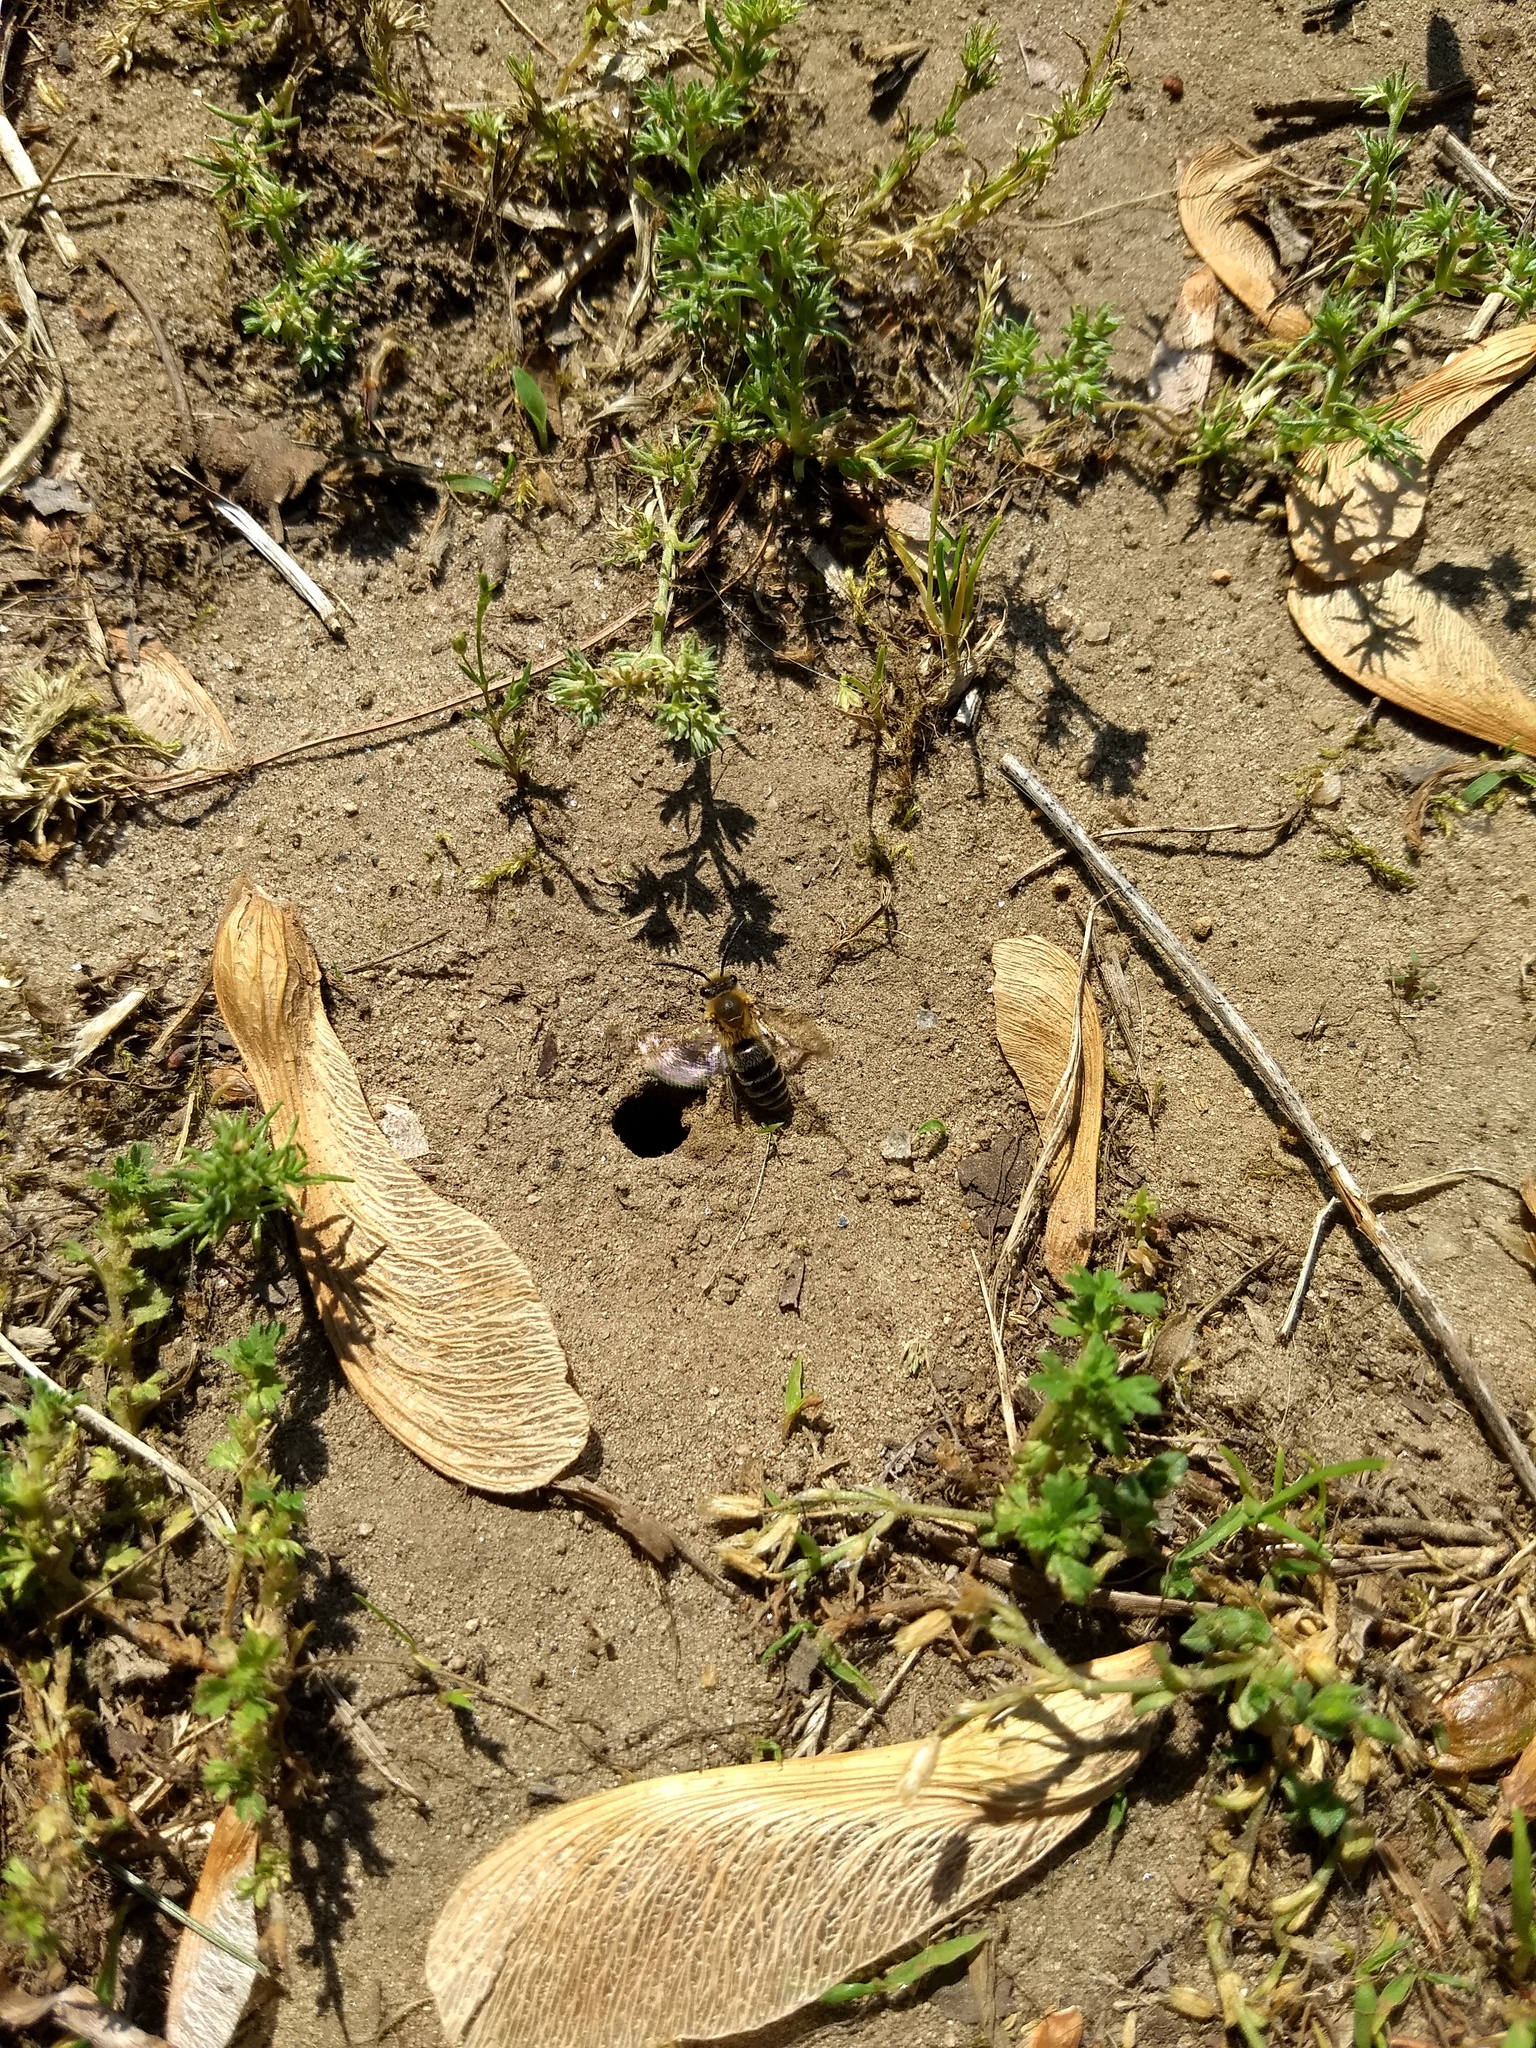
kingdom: Animalia
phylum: Arthropoda
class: Insecta
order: Hymenoptera
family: Colletidae
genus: Colletes
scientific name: Colletes thoracicus
